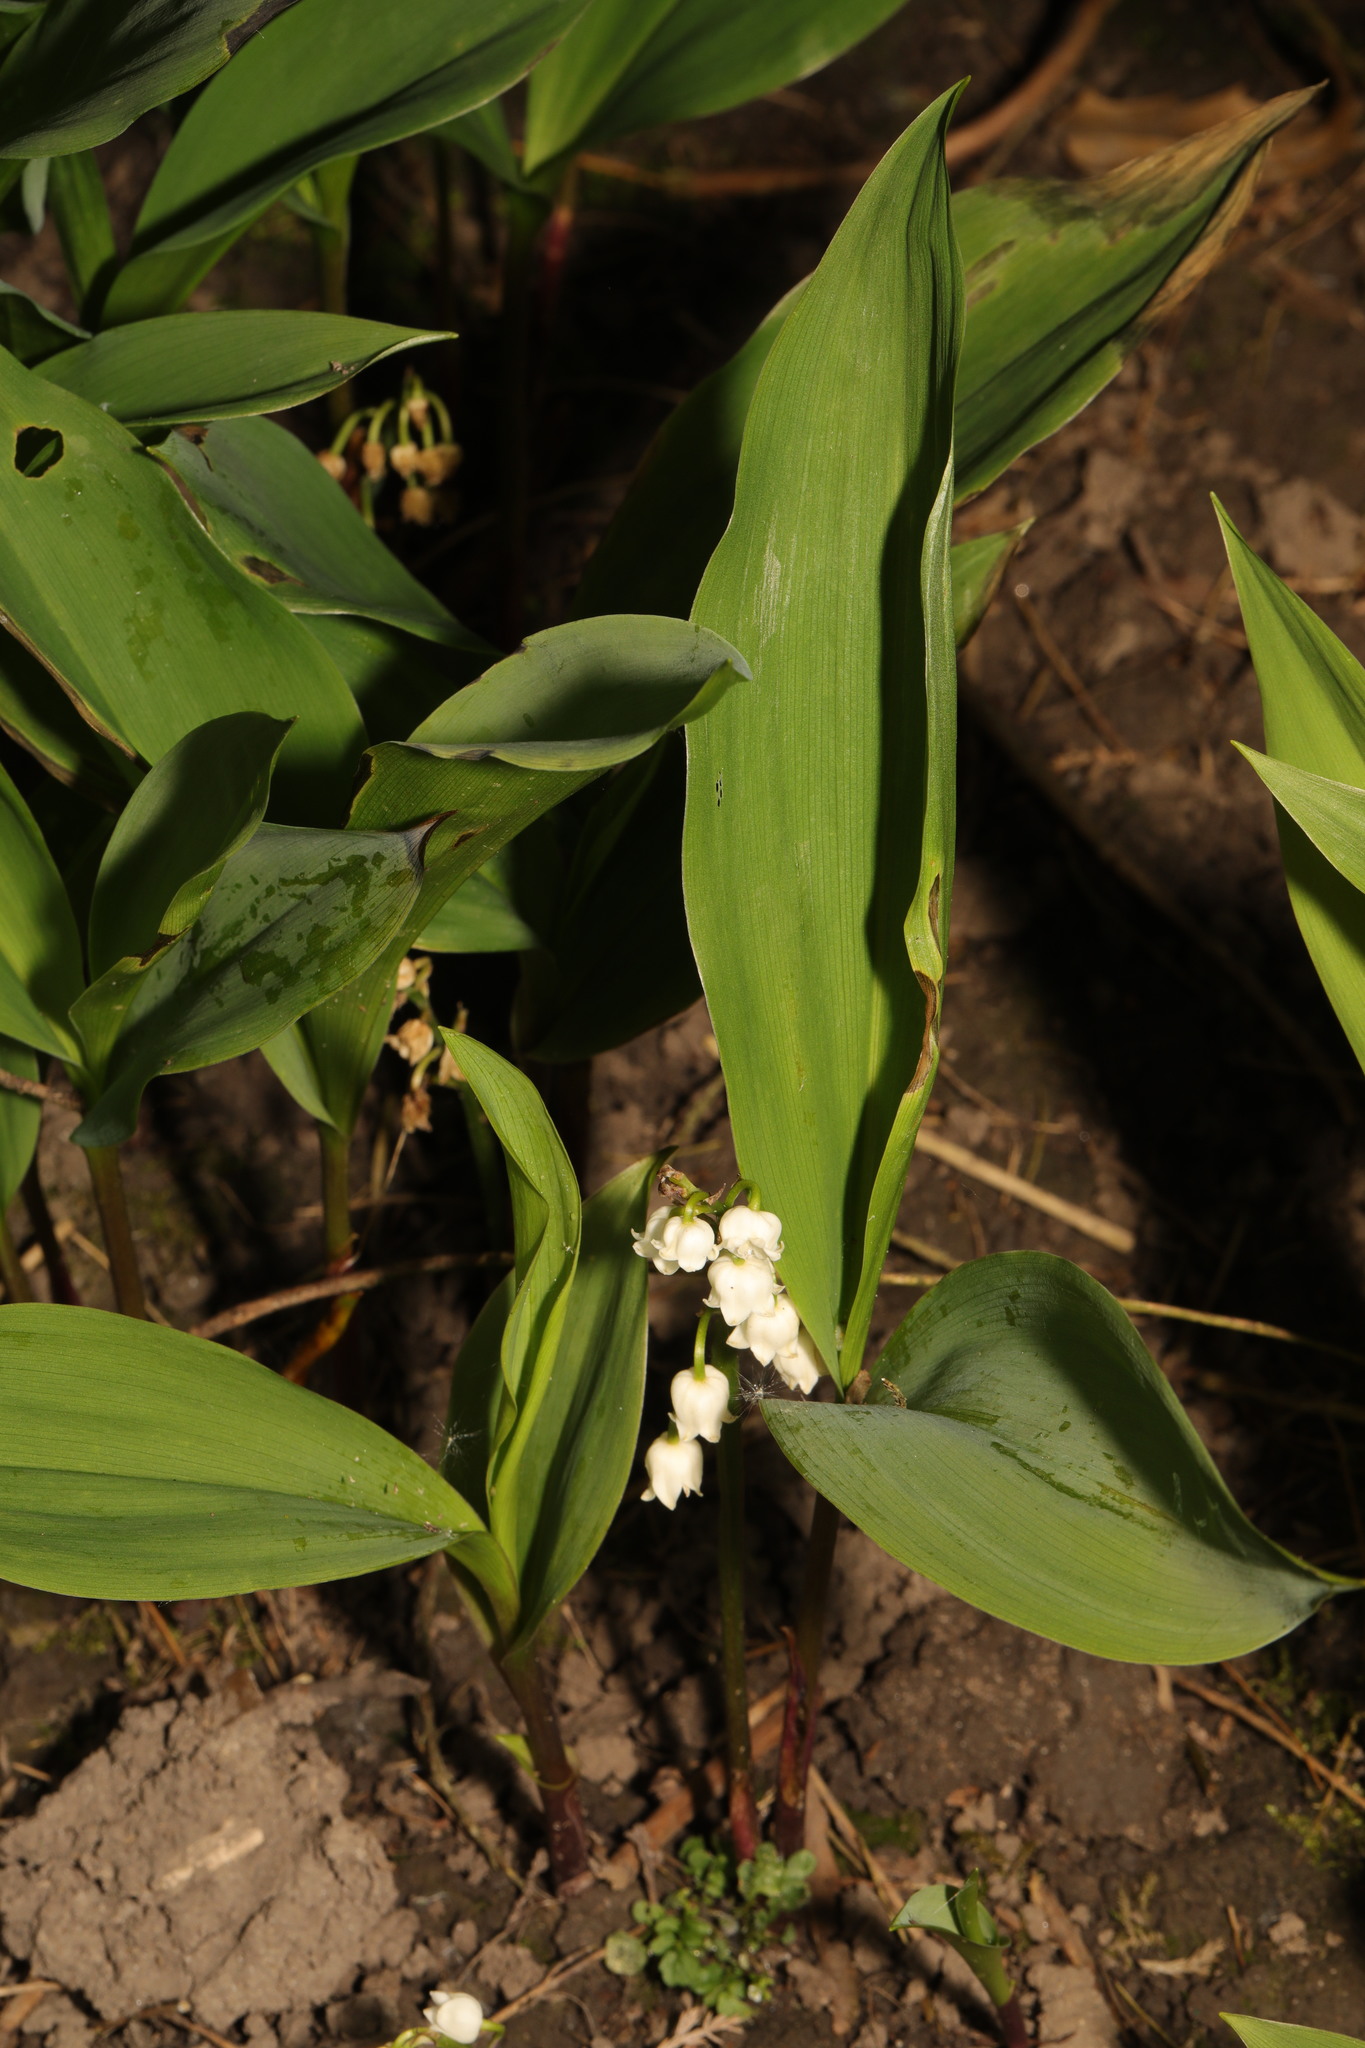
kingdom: Plantae
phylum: Tracheophyta
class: Liliopsida
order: Asparagales
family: Asparagaceae
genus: Convallaria
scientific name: Convallaria majalis
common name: Lily-of-the-valley
